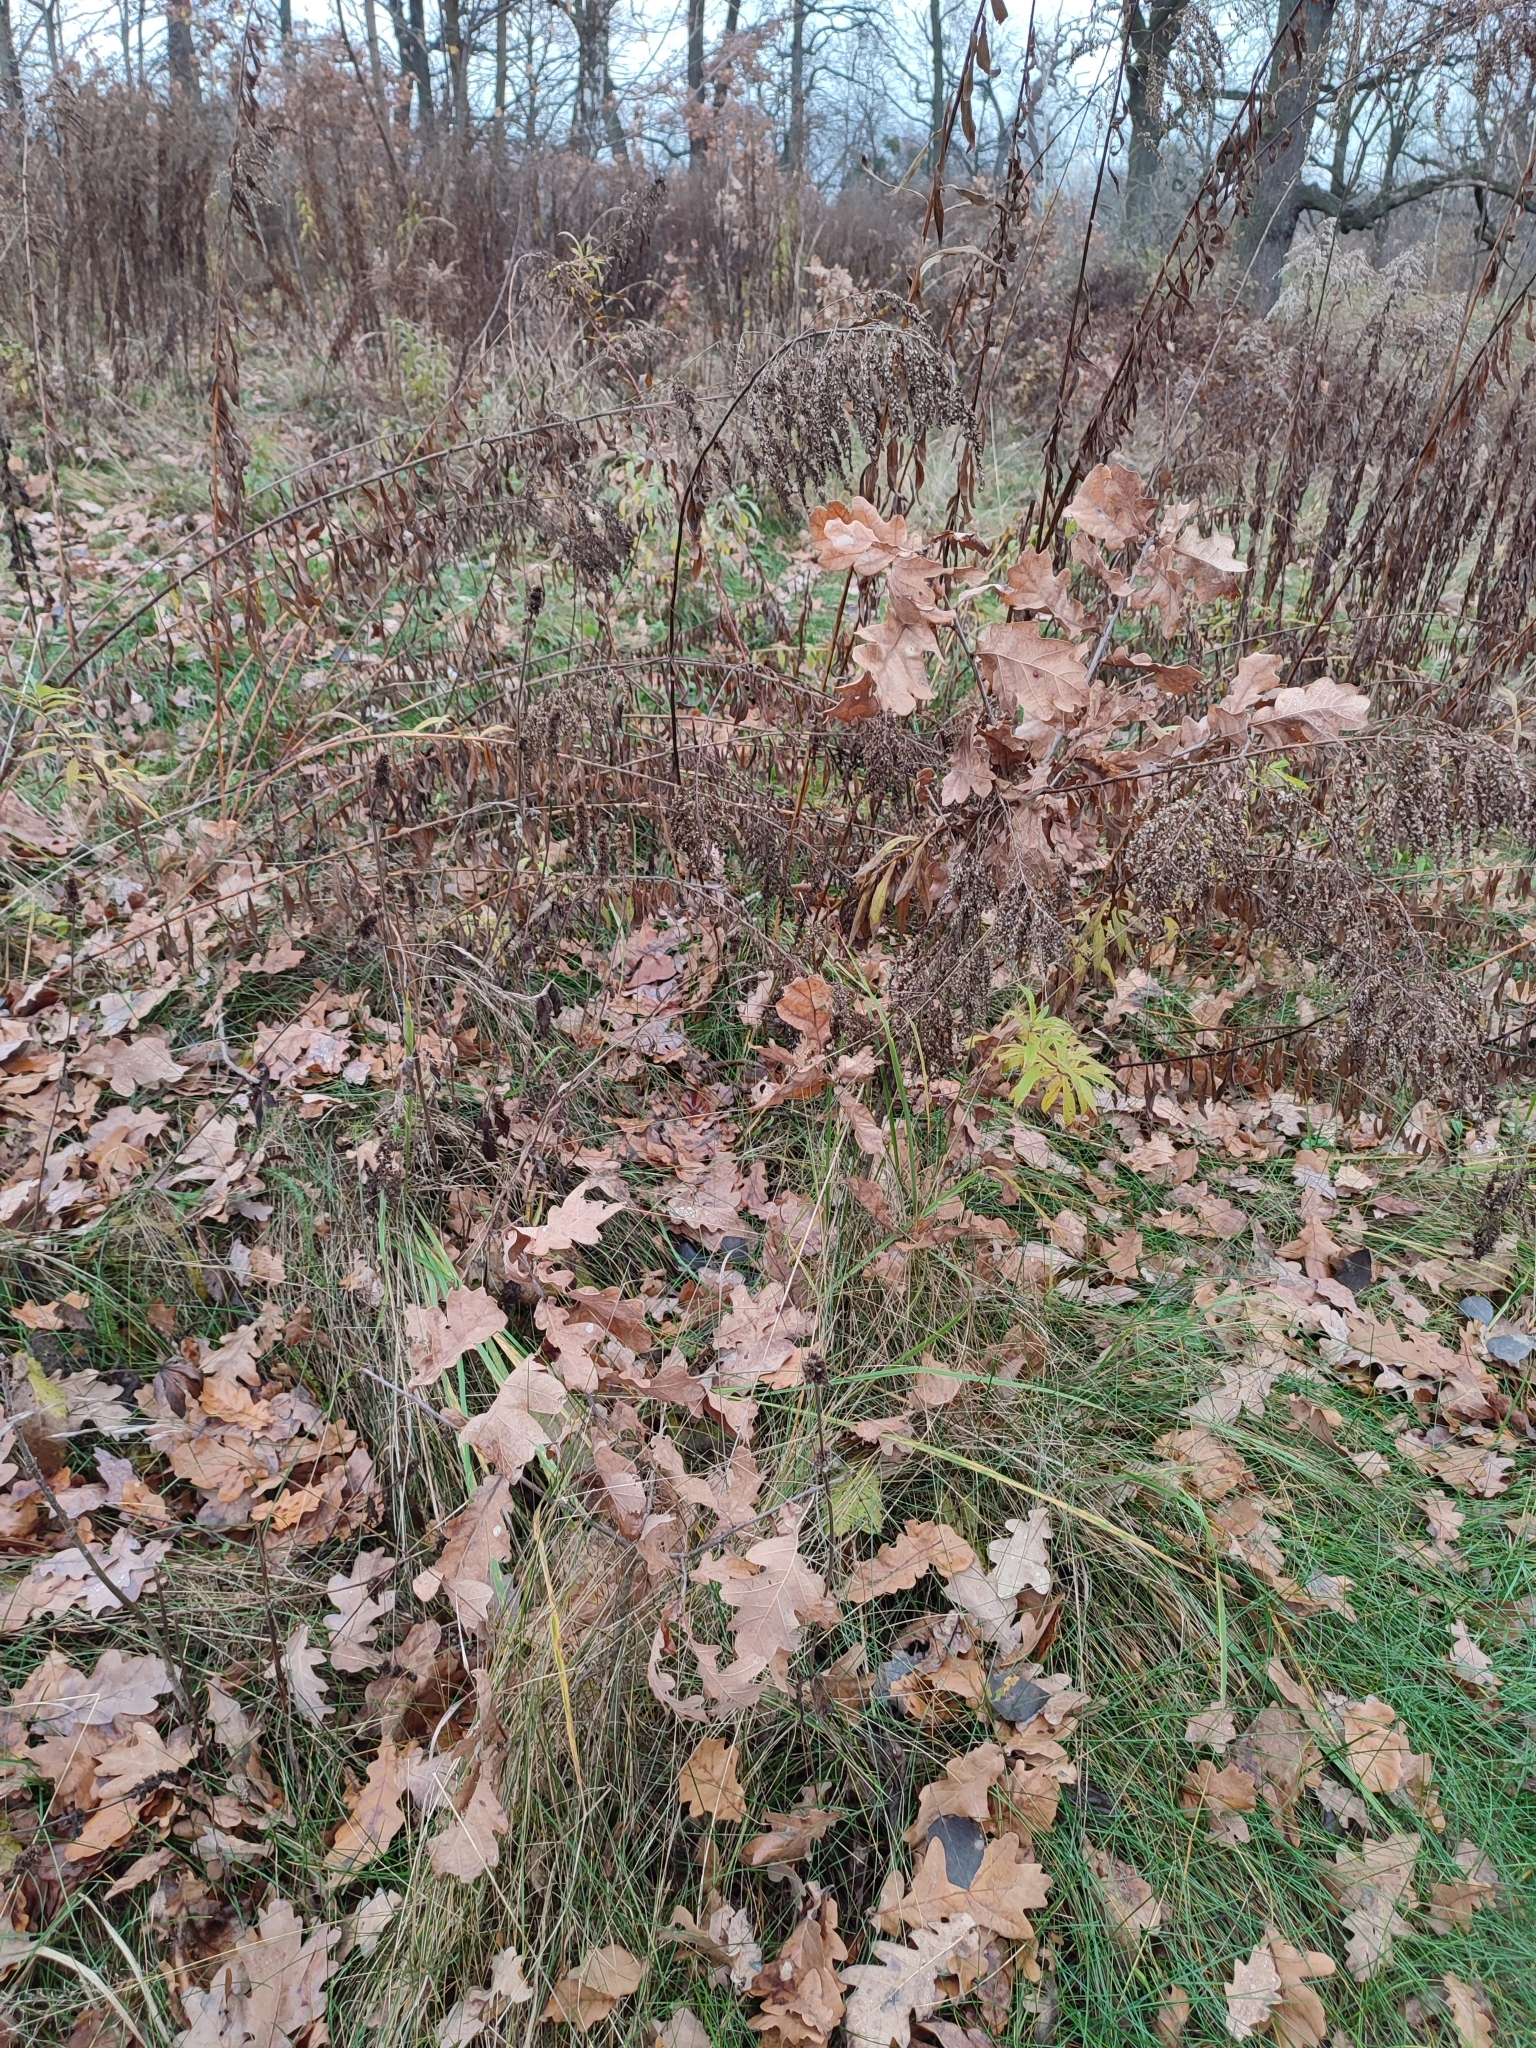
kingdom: Plantae
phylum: Tracheophyta
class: Magnoliopsida
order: Fagales
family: Fagaceae
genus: Quercus
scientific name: Quercus robur
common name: Pedunculate oak
